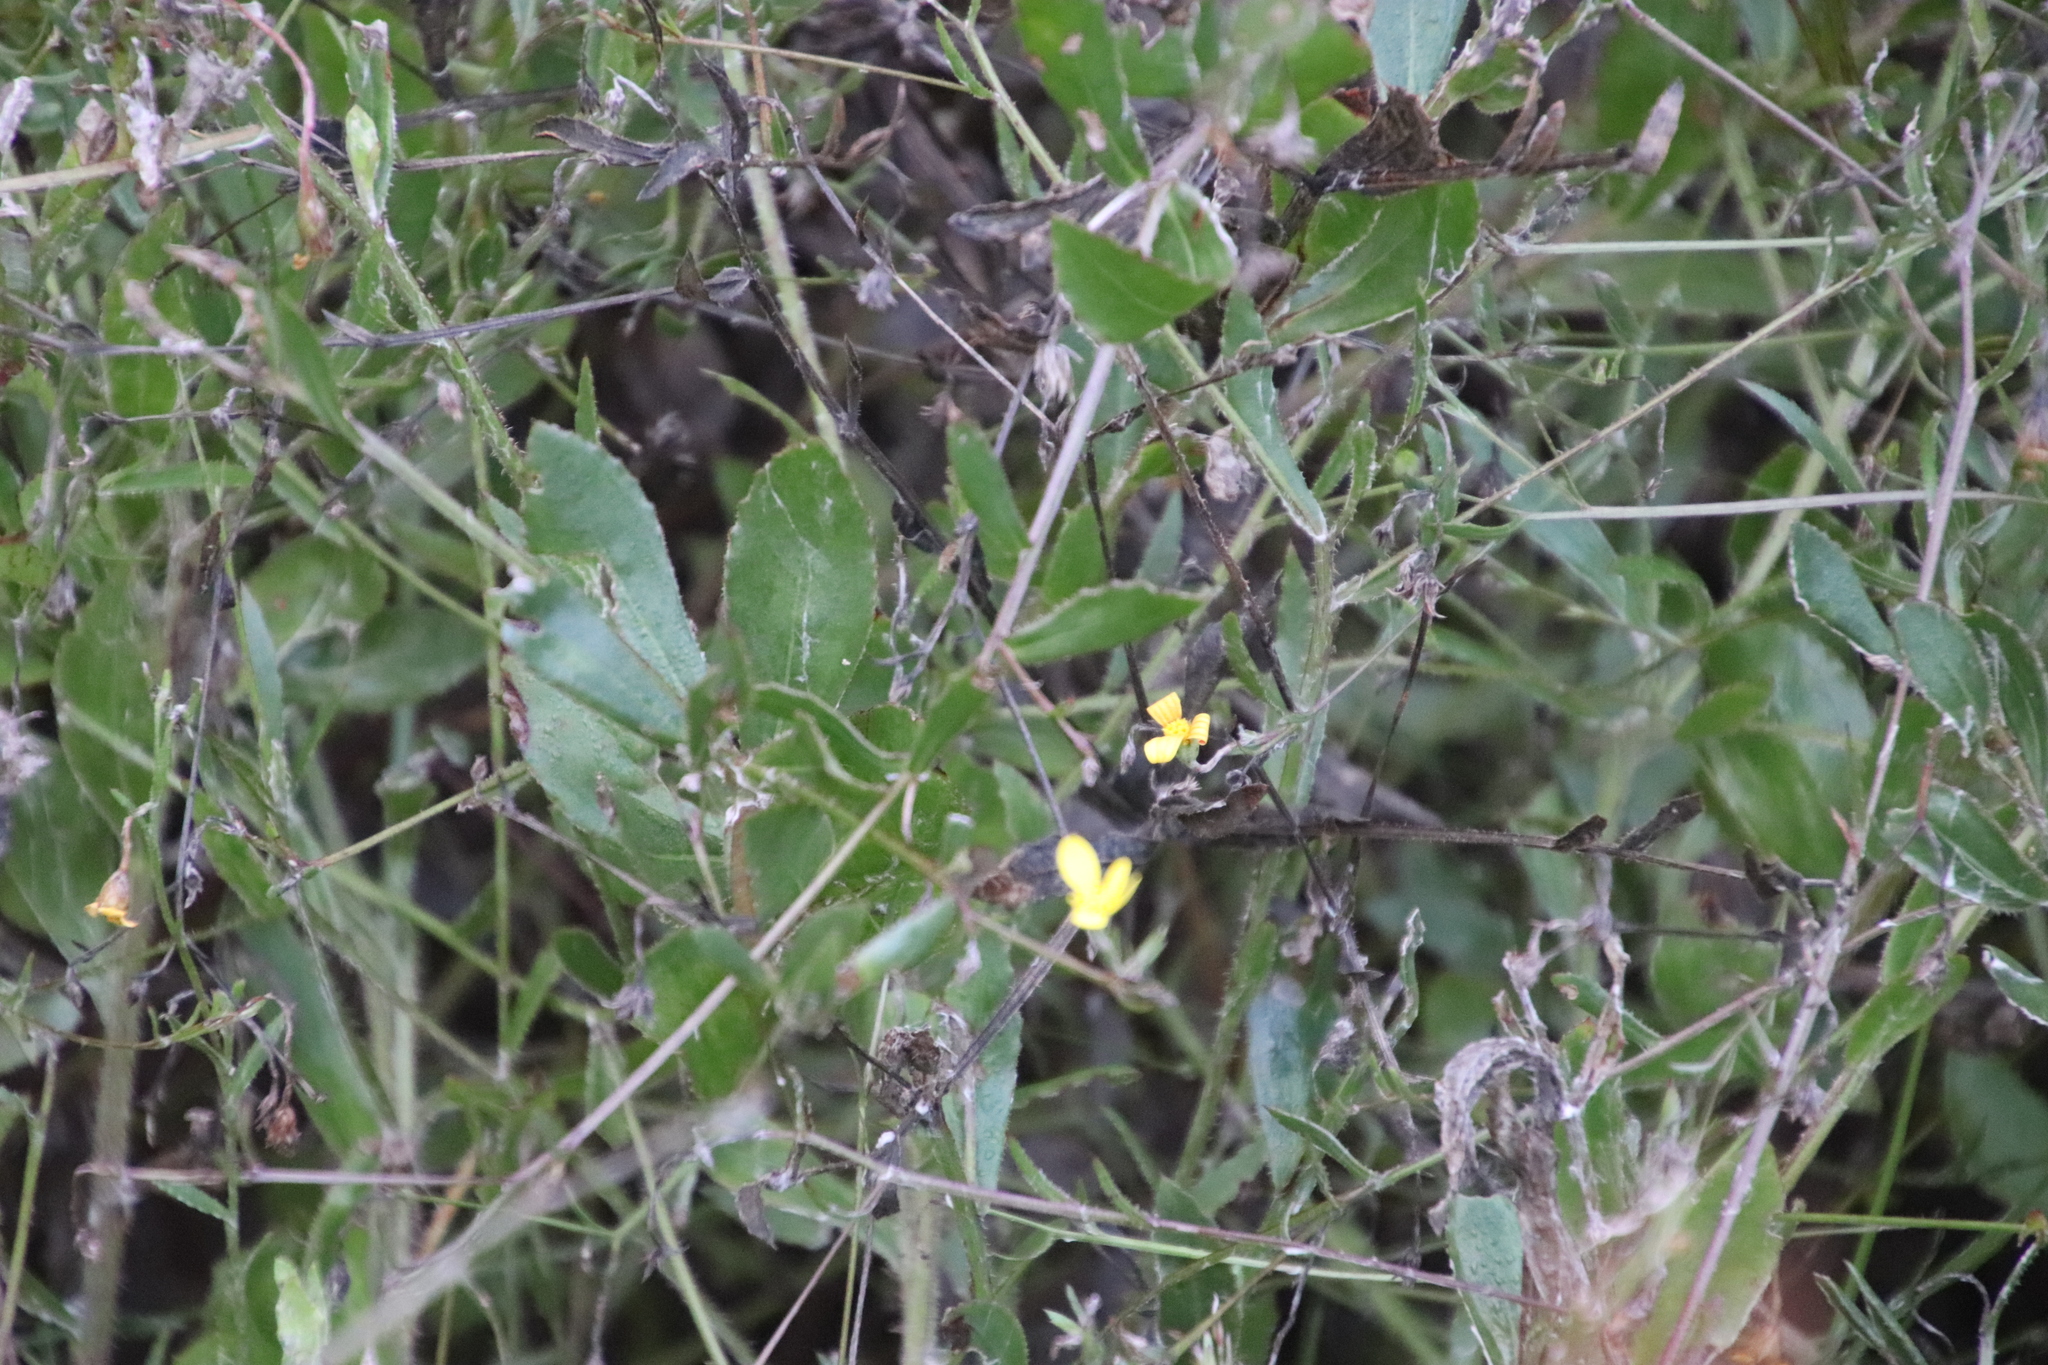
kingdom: Plantae
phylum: Tracheophyta
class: Magnoliopsida
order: Asterales
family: Asteraceae
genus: Osteospermum
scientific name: Osteospermum ciliatum
